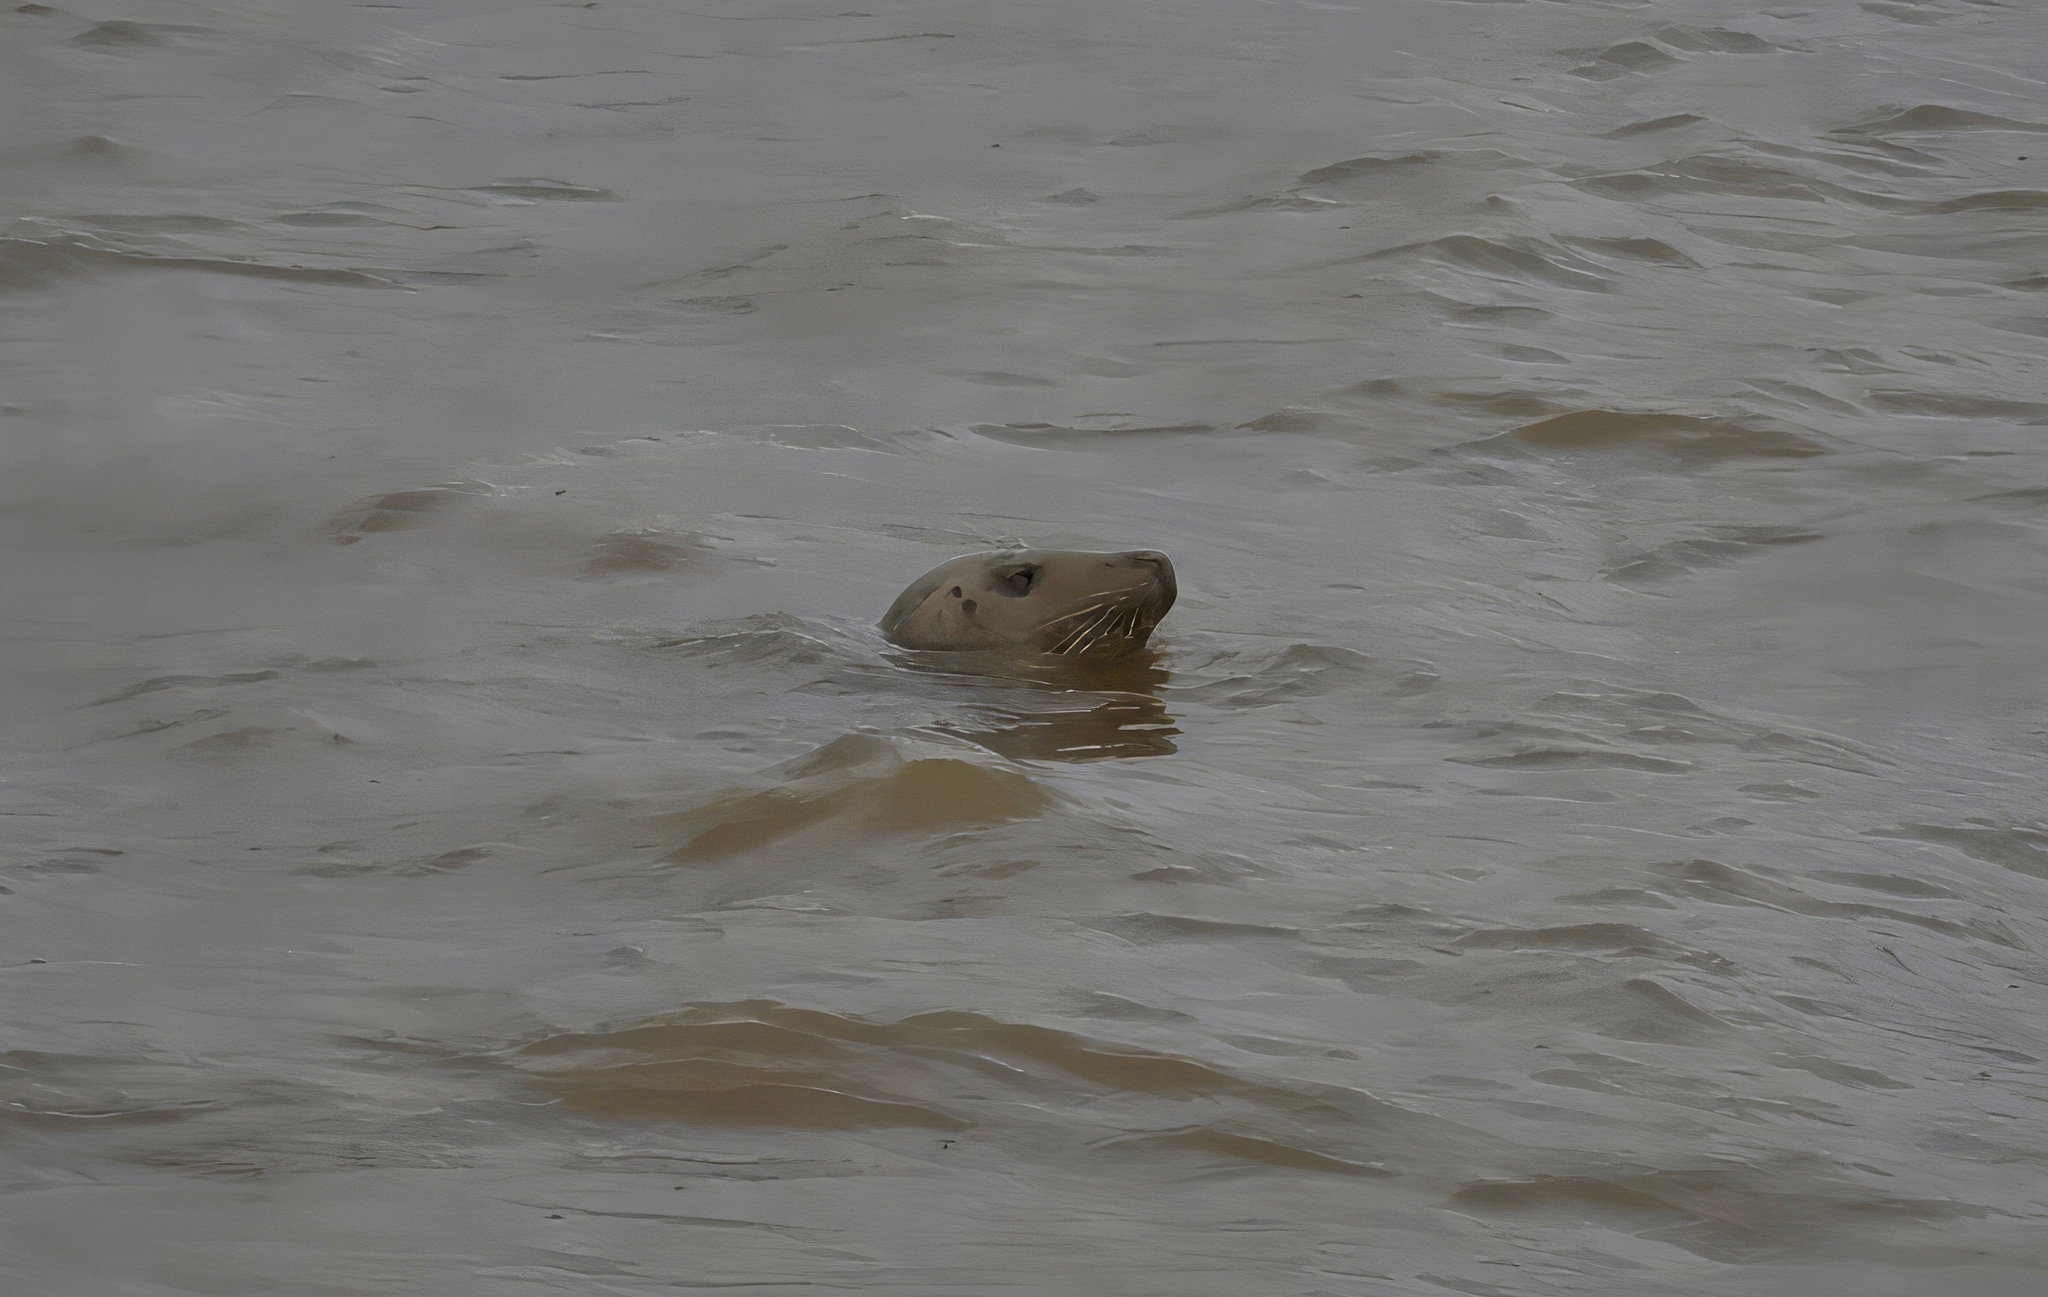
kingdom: Animalia
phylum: Chordata
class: Mammalia
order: Carnivora
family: Phocidae
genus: Halichoerus
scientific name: Halichoerus grypus
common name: Grey seal
